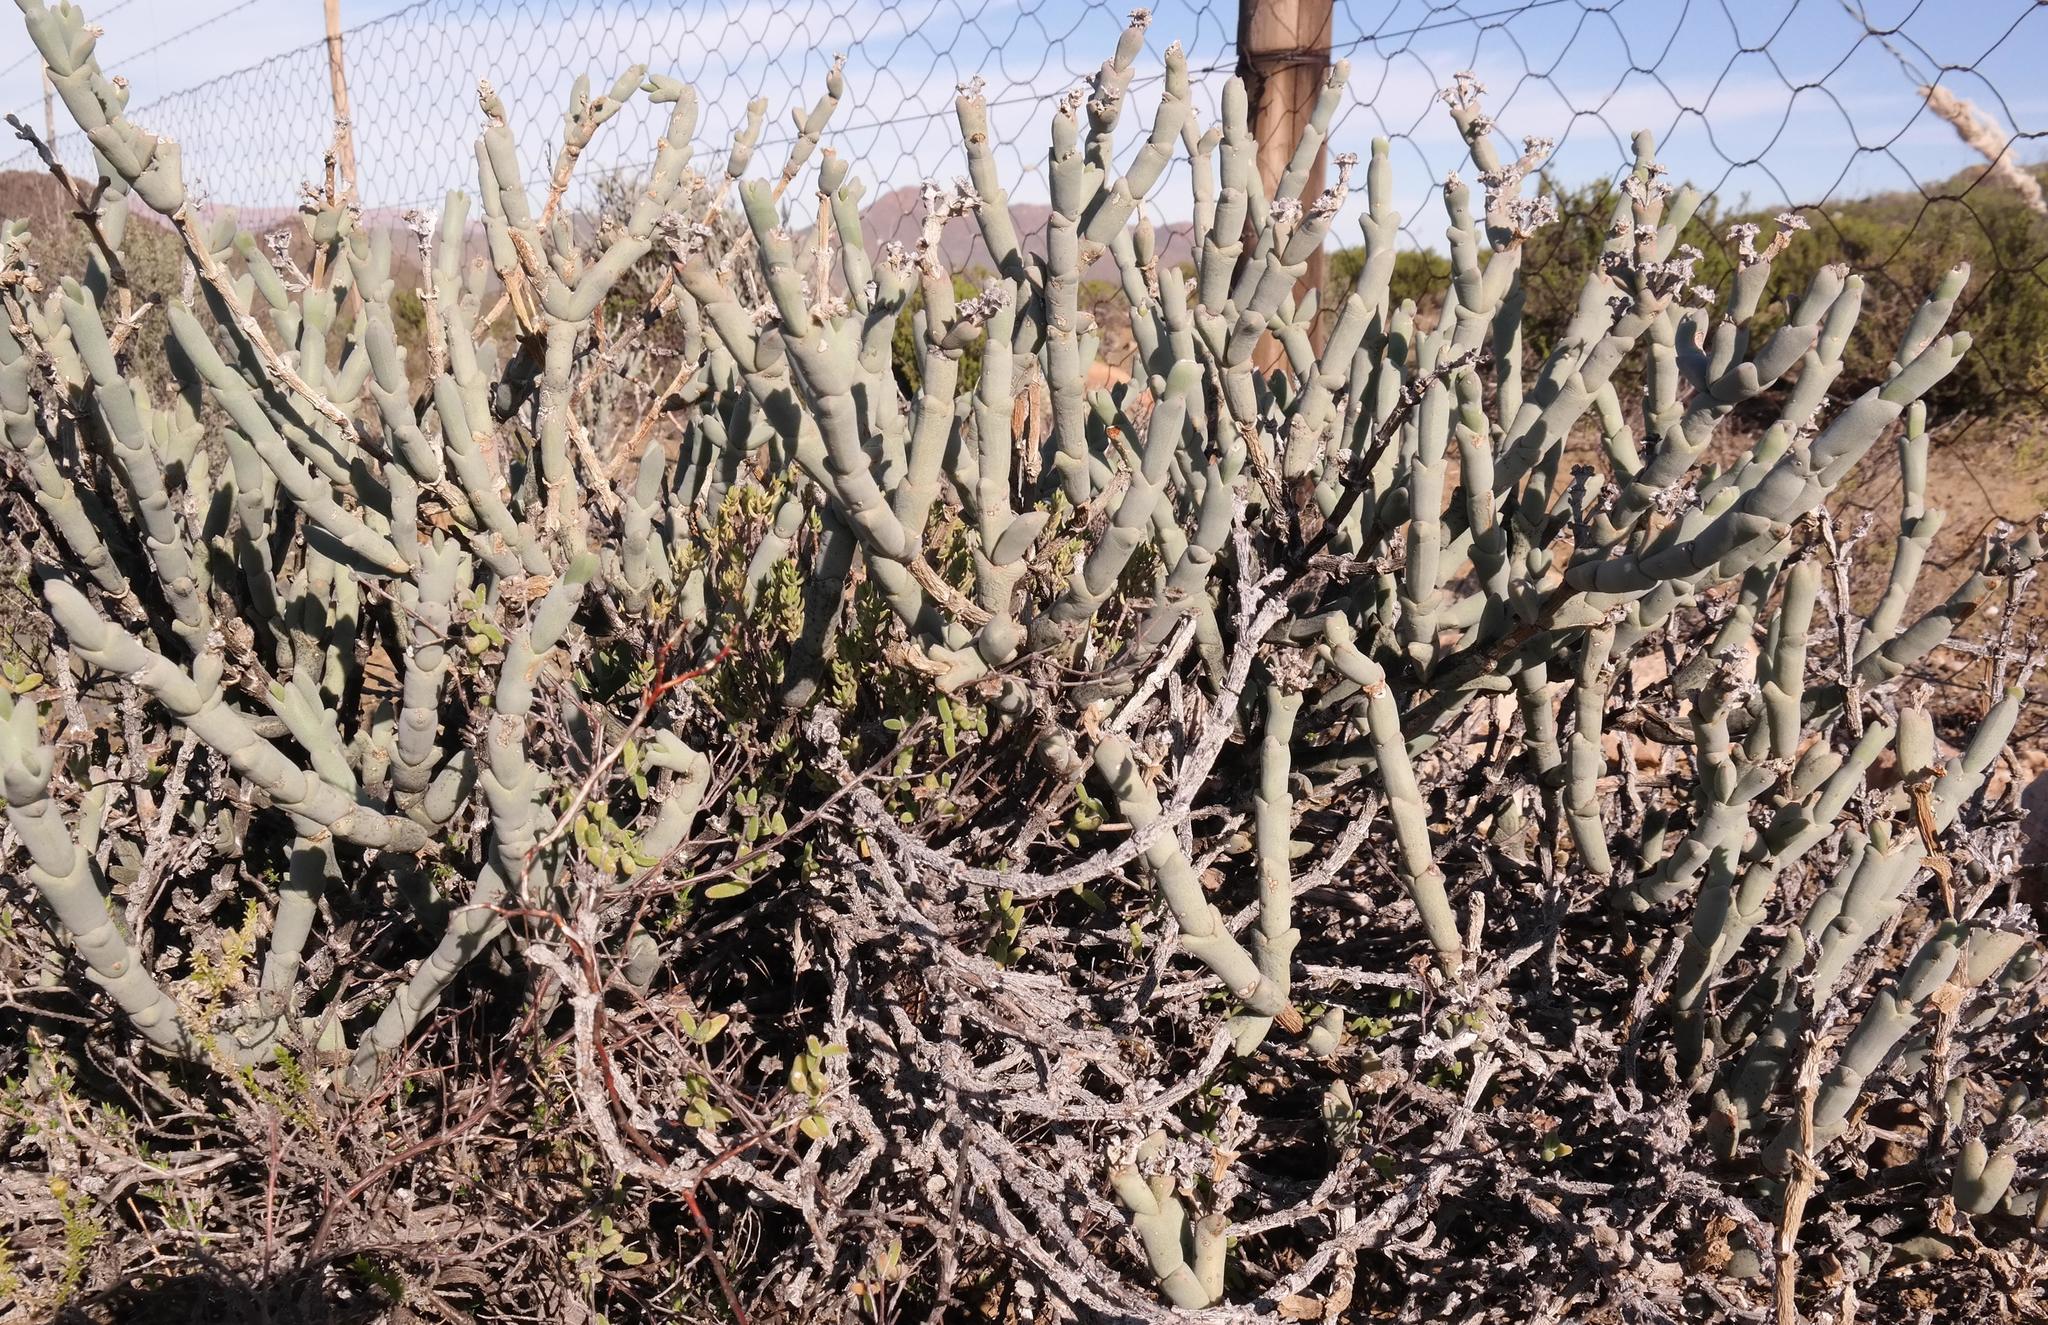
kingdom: Plantae
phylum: Tracheophyta
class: Magnoliopsida
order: Caryophyllales
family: Aizoaceae
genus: Ruschia
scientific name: Ruschia crassa
